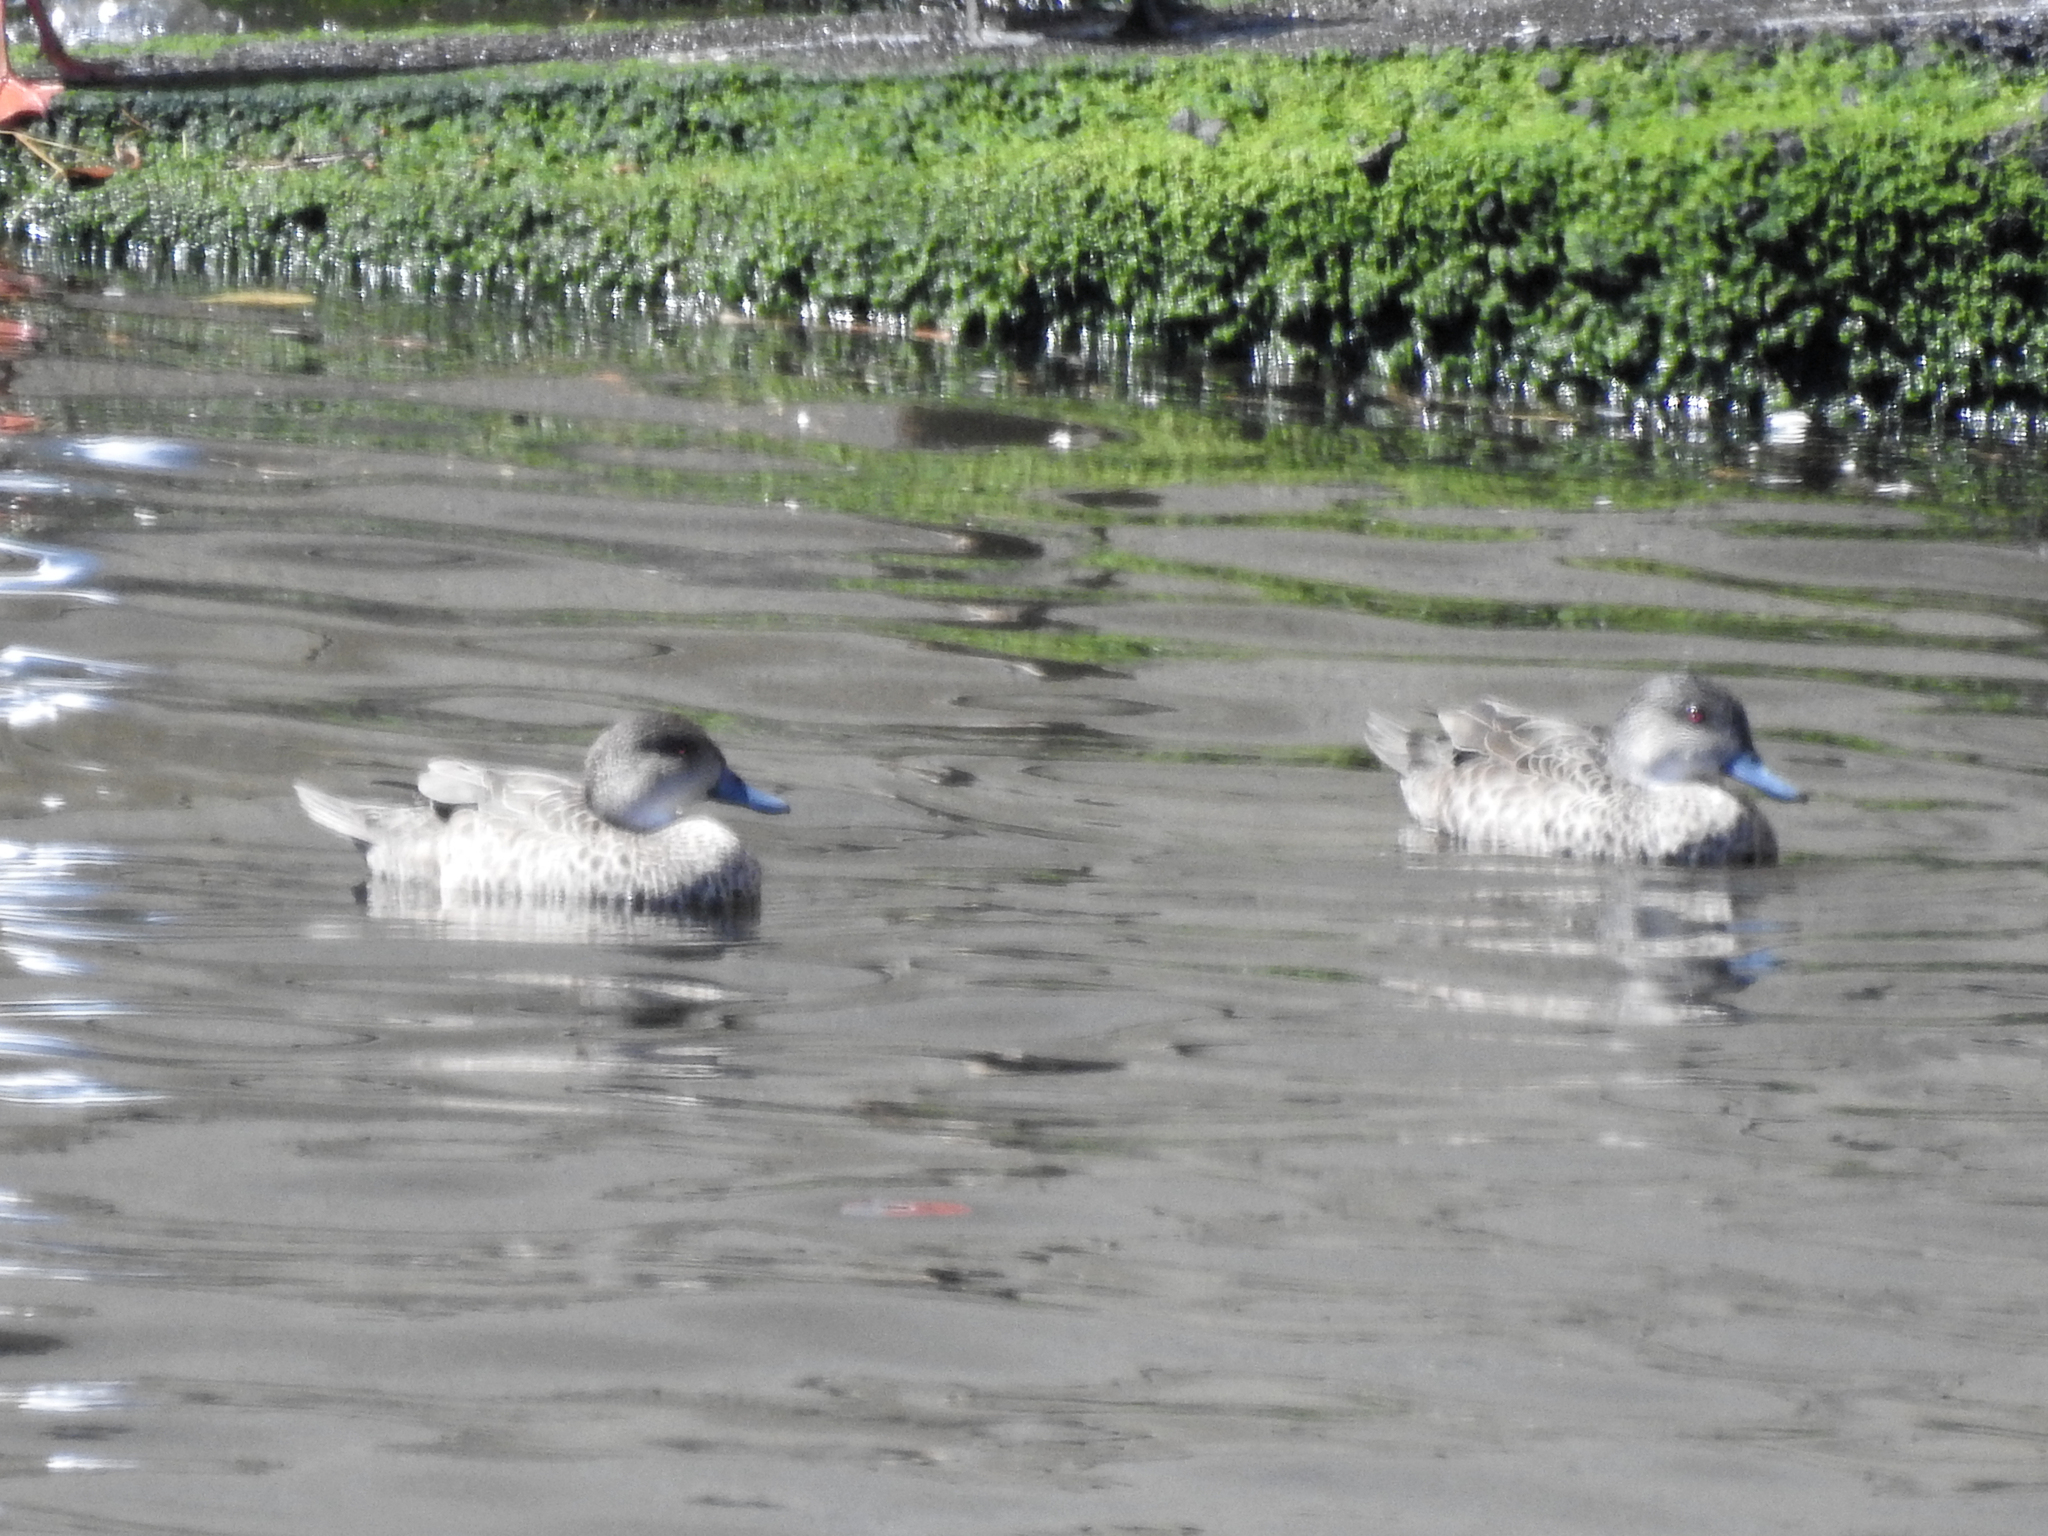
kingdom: Animalia
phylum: Chordata
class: Aves
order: Anseriformes
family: Anatidae
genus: Anas
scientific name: Anas gracilis
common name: Grey teal
